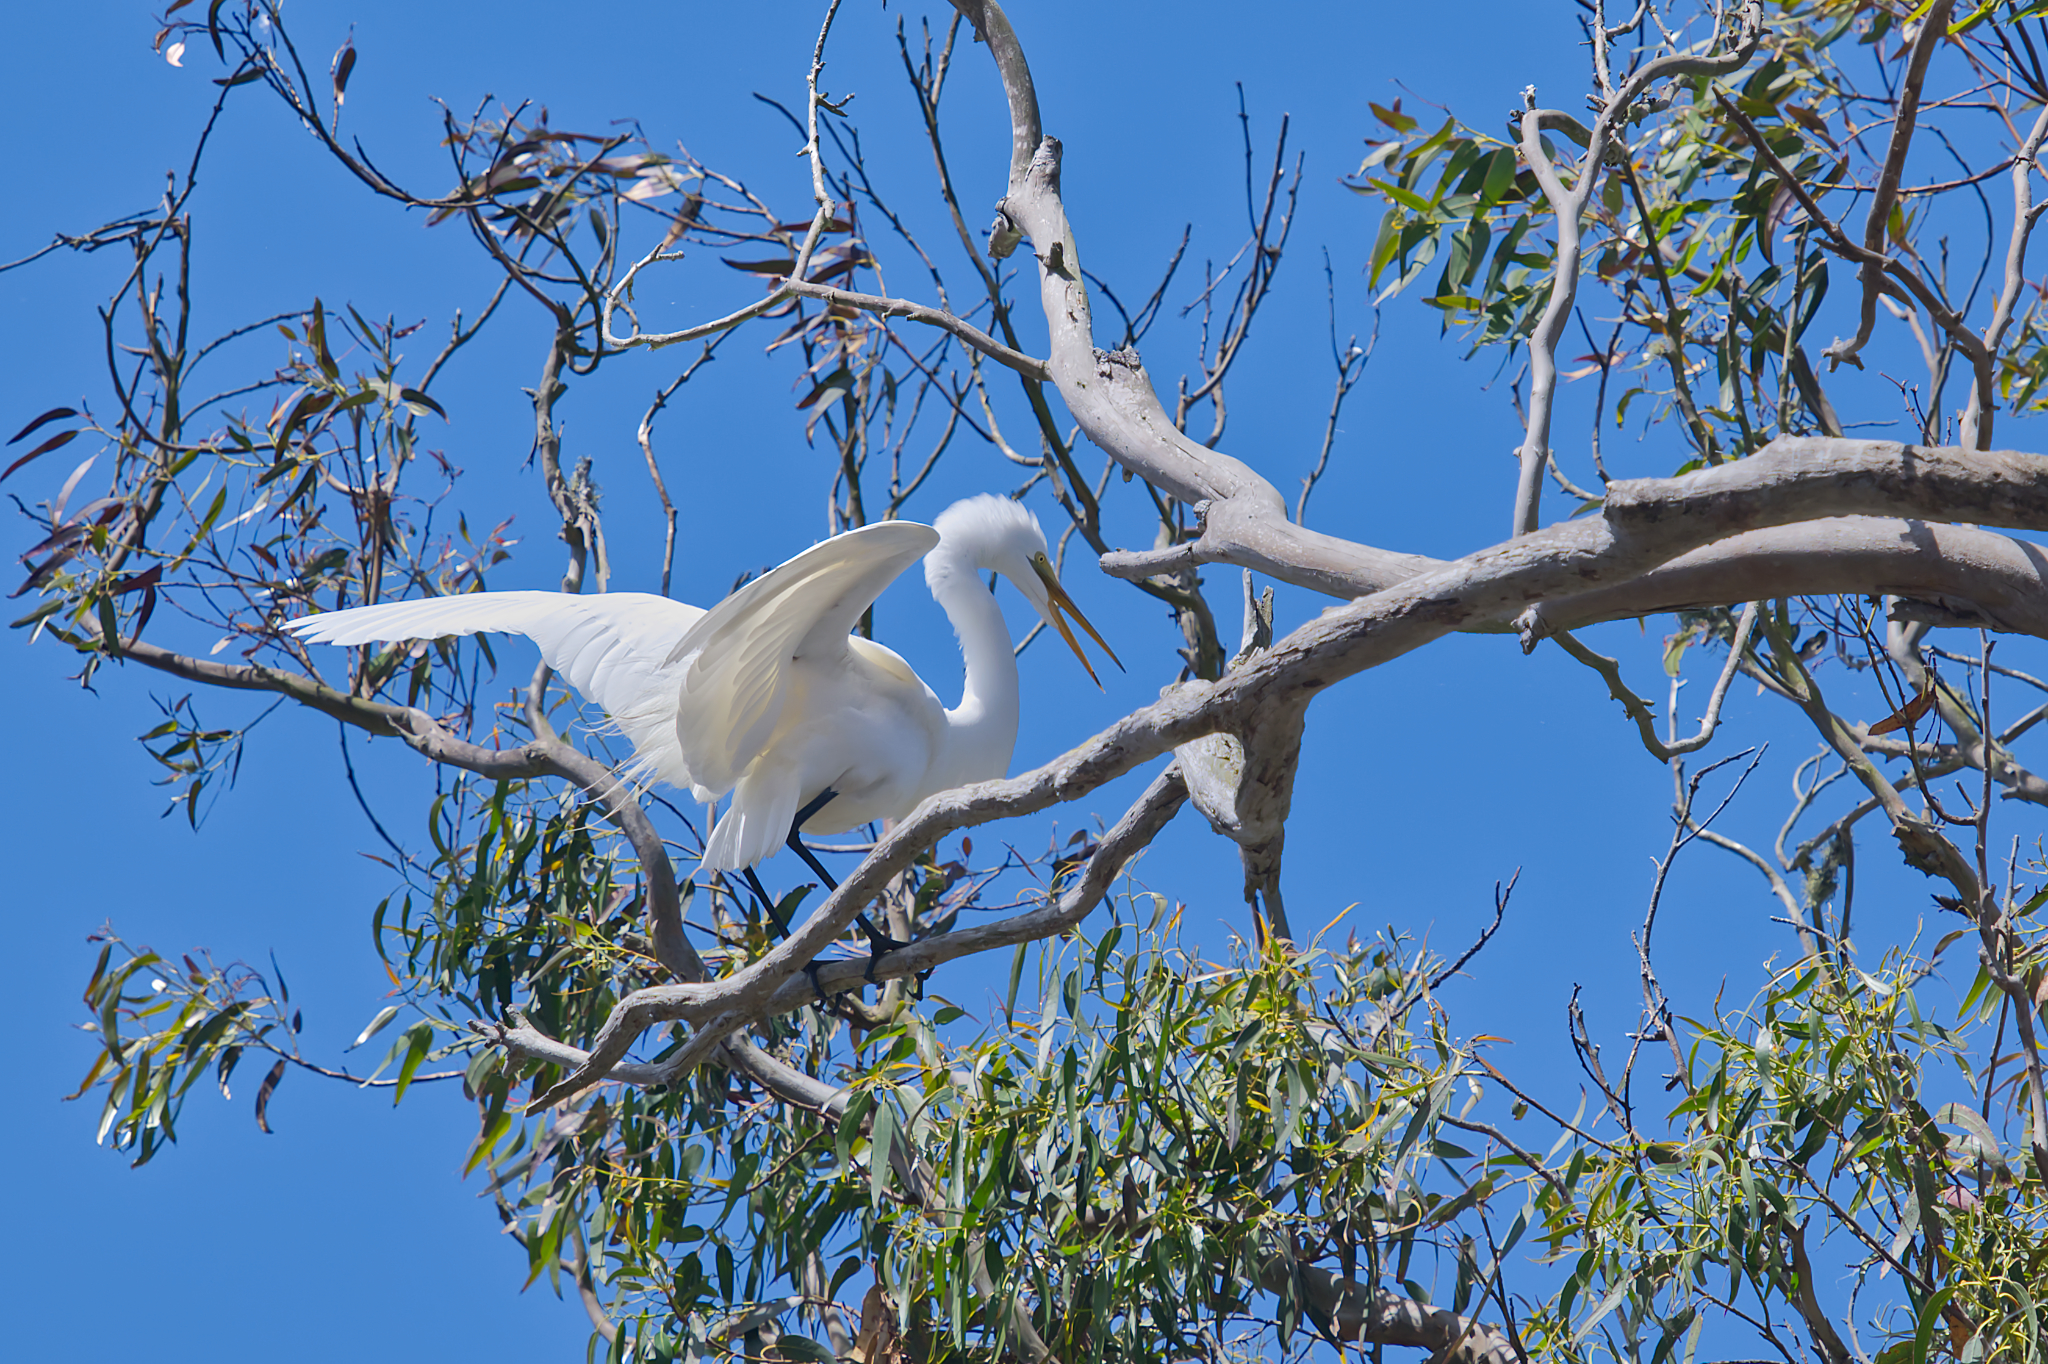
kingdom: Animalia
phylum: Chordata
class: Aves
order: Pelecaniformes
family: Ardeidae
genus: Ardea
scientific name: Ardea alba
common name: Great egret
